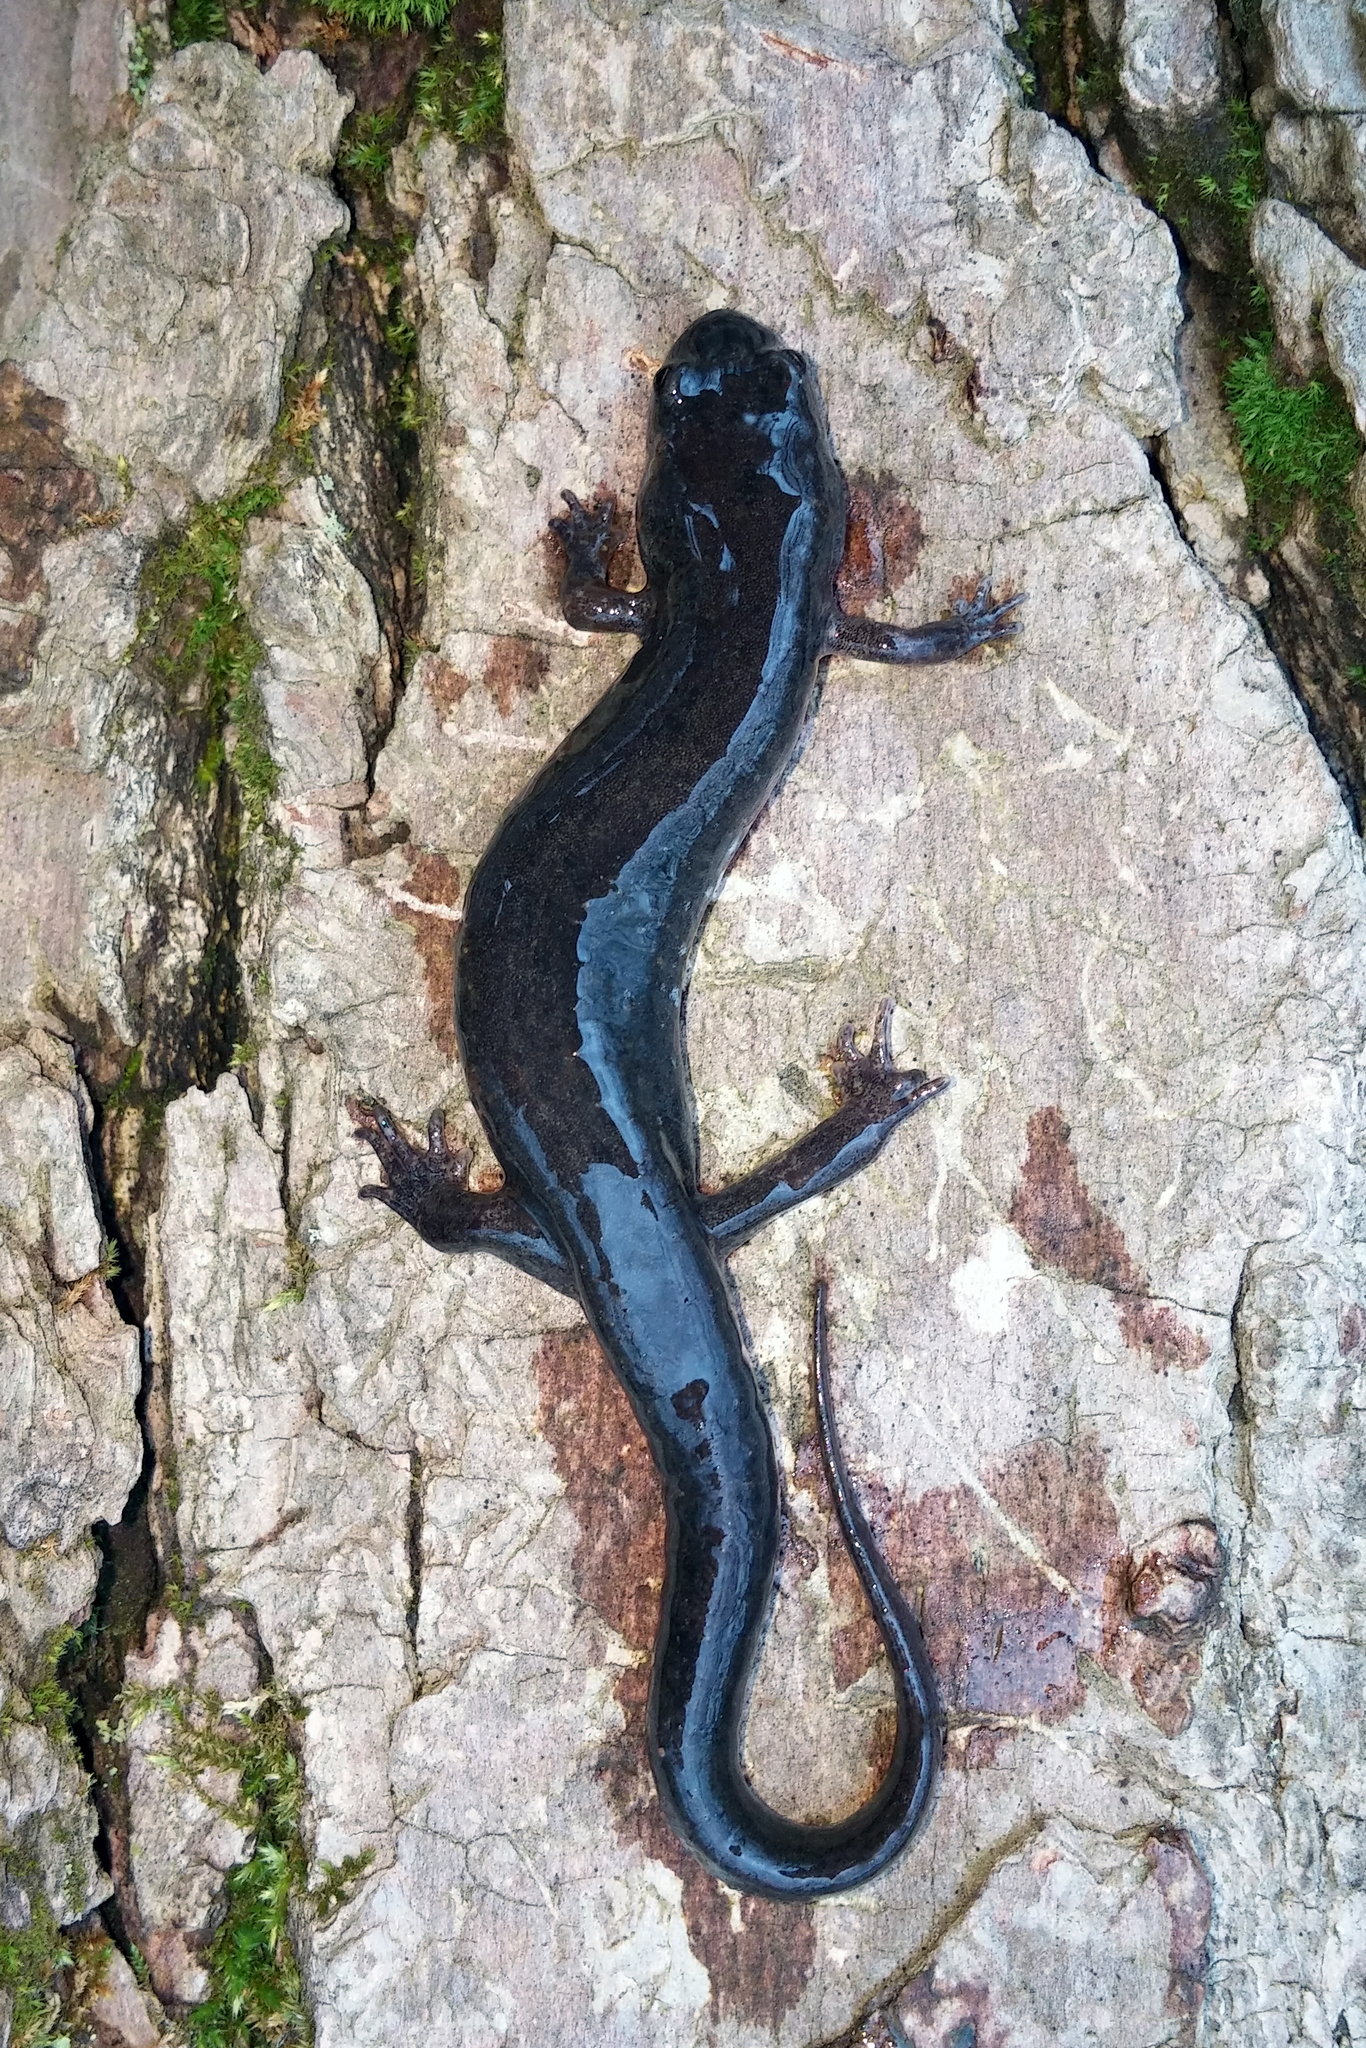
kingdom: Animalia
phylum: Chordata
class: Amphibia
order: Caudata
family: Plethodontidae
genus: Desmognathus
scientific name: Desmognathus fuscus
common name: Northern dusky salamander
